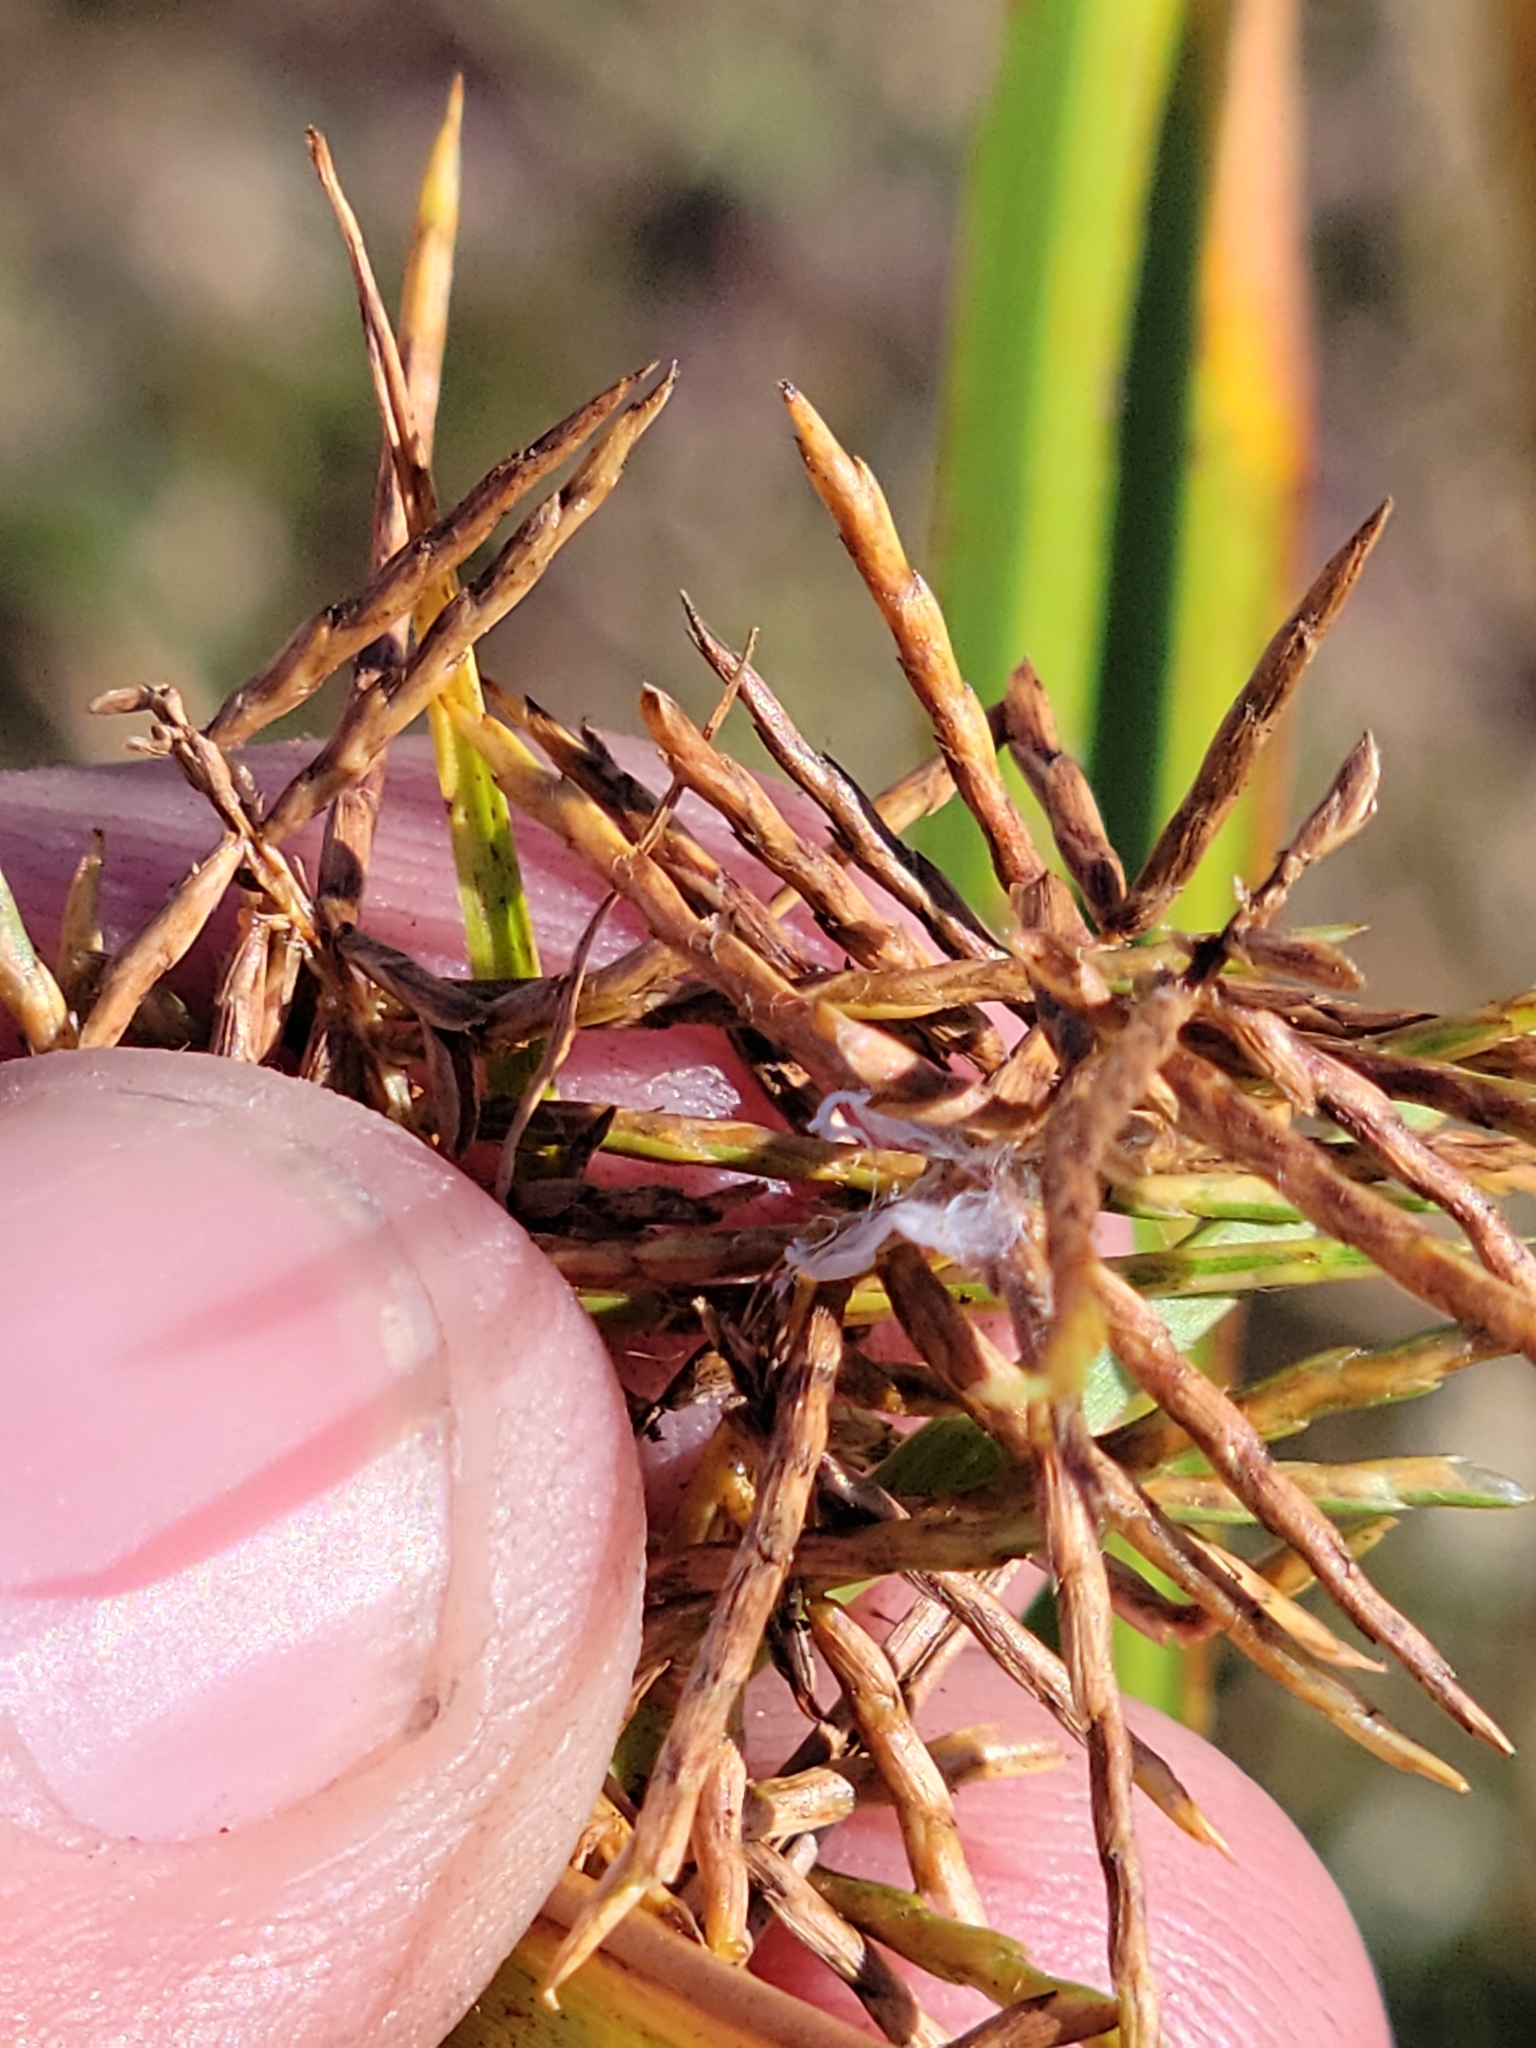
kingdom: Plantae
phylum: Tracheophyta
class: Liliopsida
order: Poales
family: Cyperaceae
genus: Cyperus
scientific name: Cyperus odoratus
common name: Fragrant flatsedge
